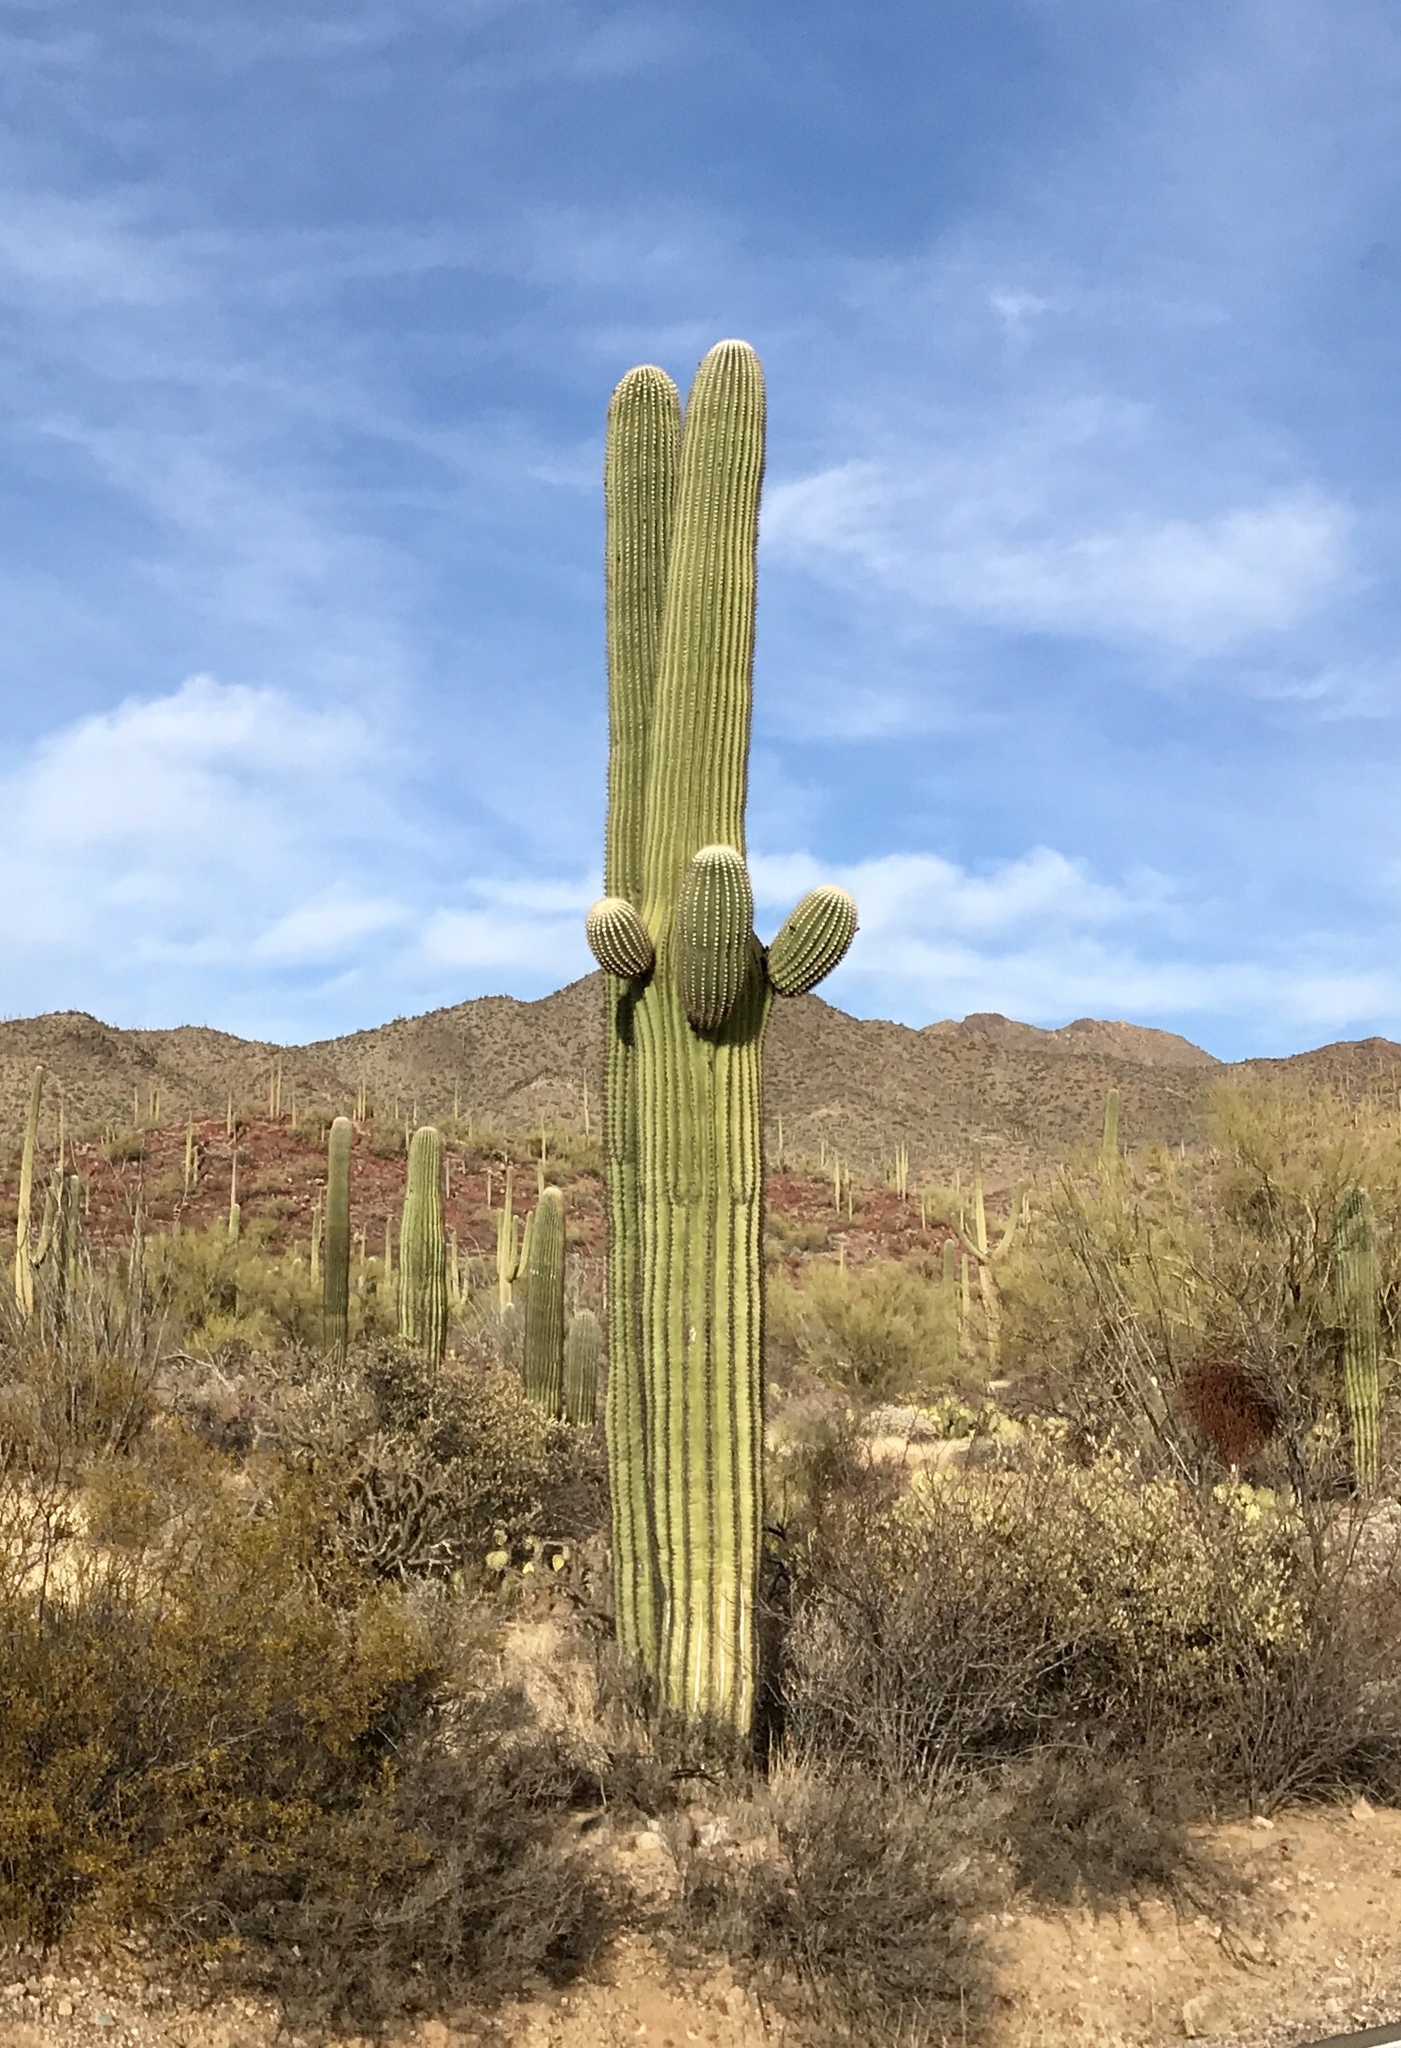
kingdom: Plantae
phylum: Tracheophyta
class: Magnoliopsida
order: Caryophyllales
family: Cactaceae
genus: Carnegiea
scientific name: Carnegiea gigantea
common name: Saguaro
